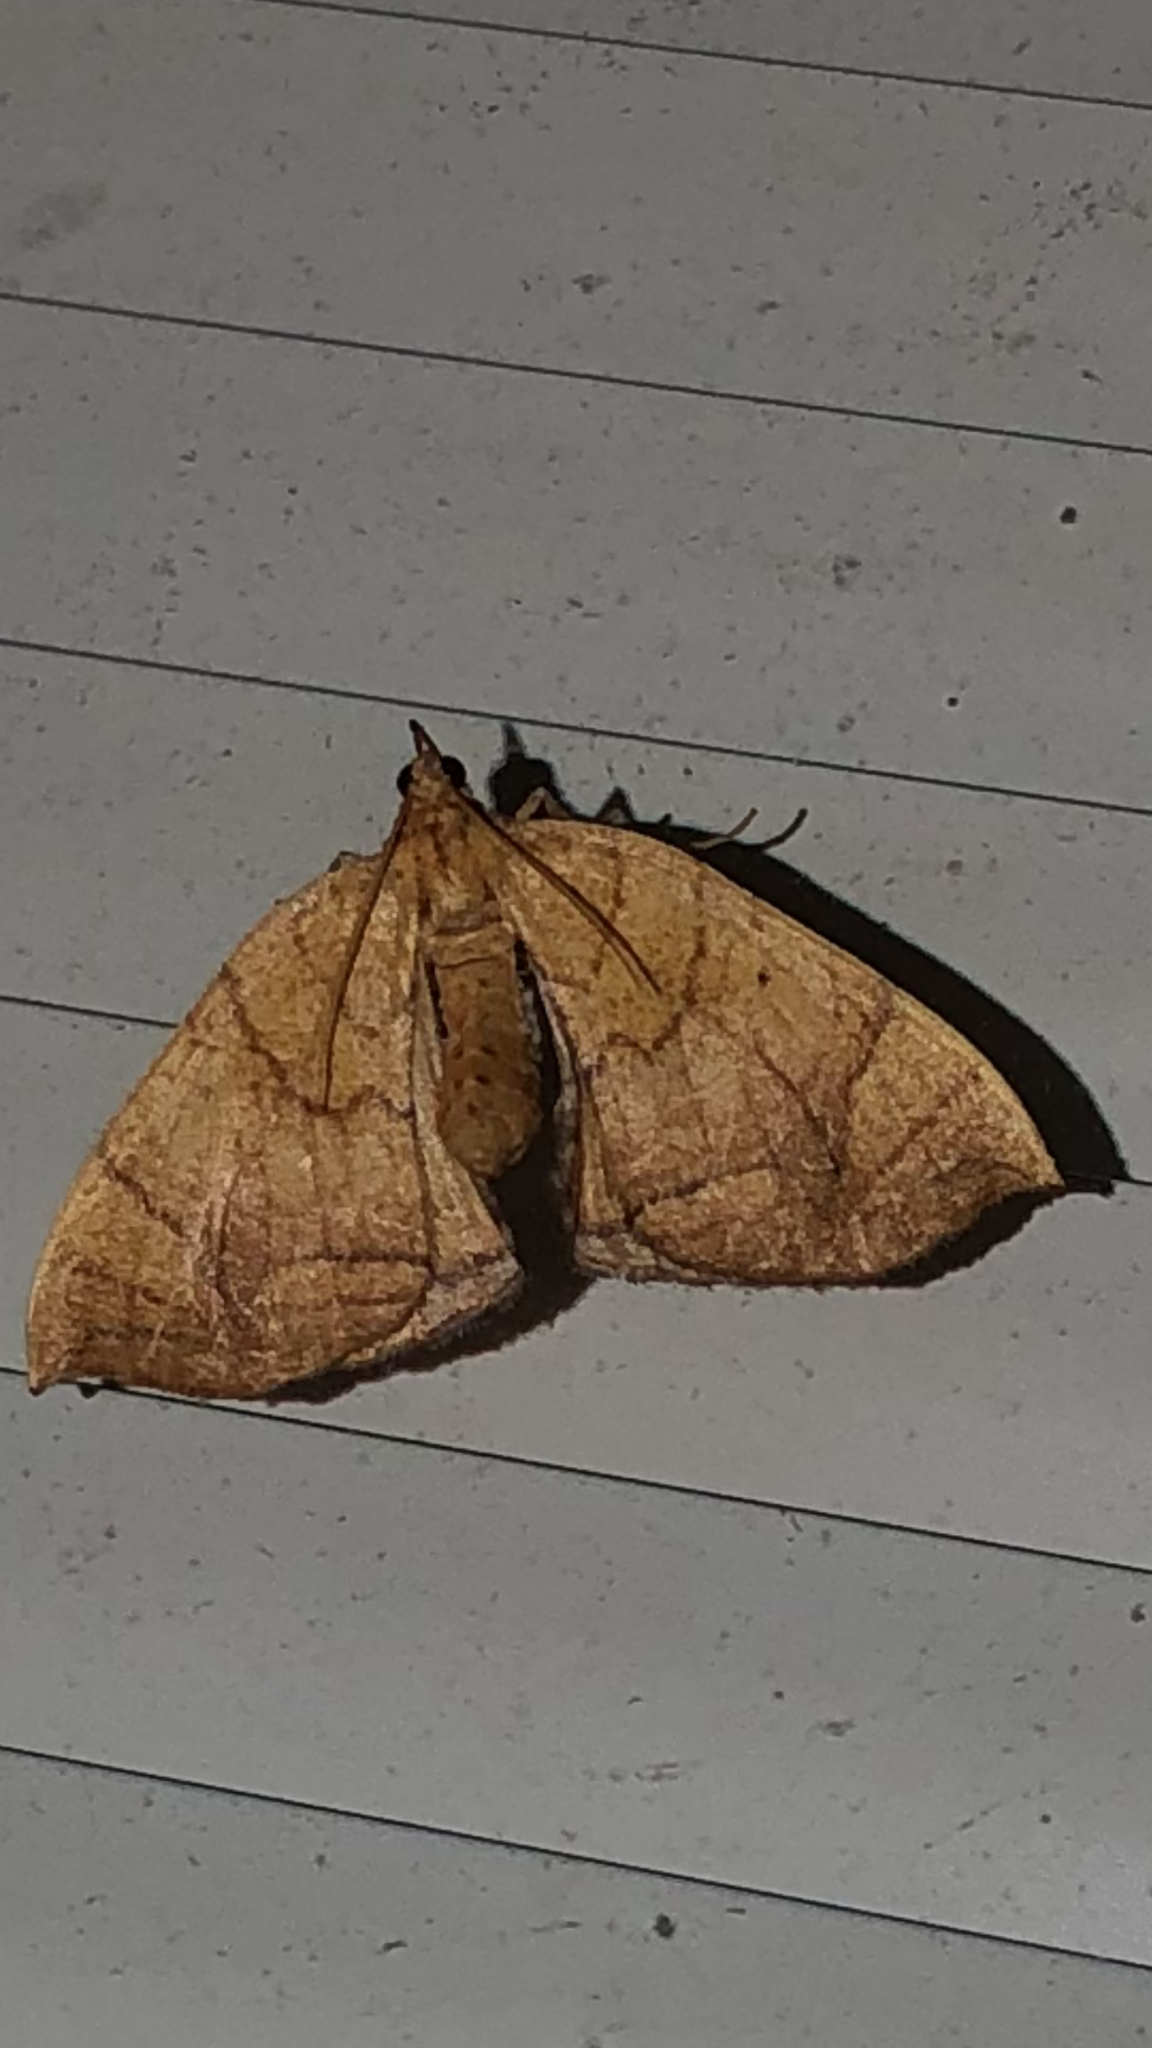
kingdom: Animalia
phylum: Arthropoda
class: Insecta
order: Lepidoptera
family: Geometridae
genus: Eulithis
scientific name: Eulithis diversilineata
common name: Grapevine looper
